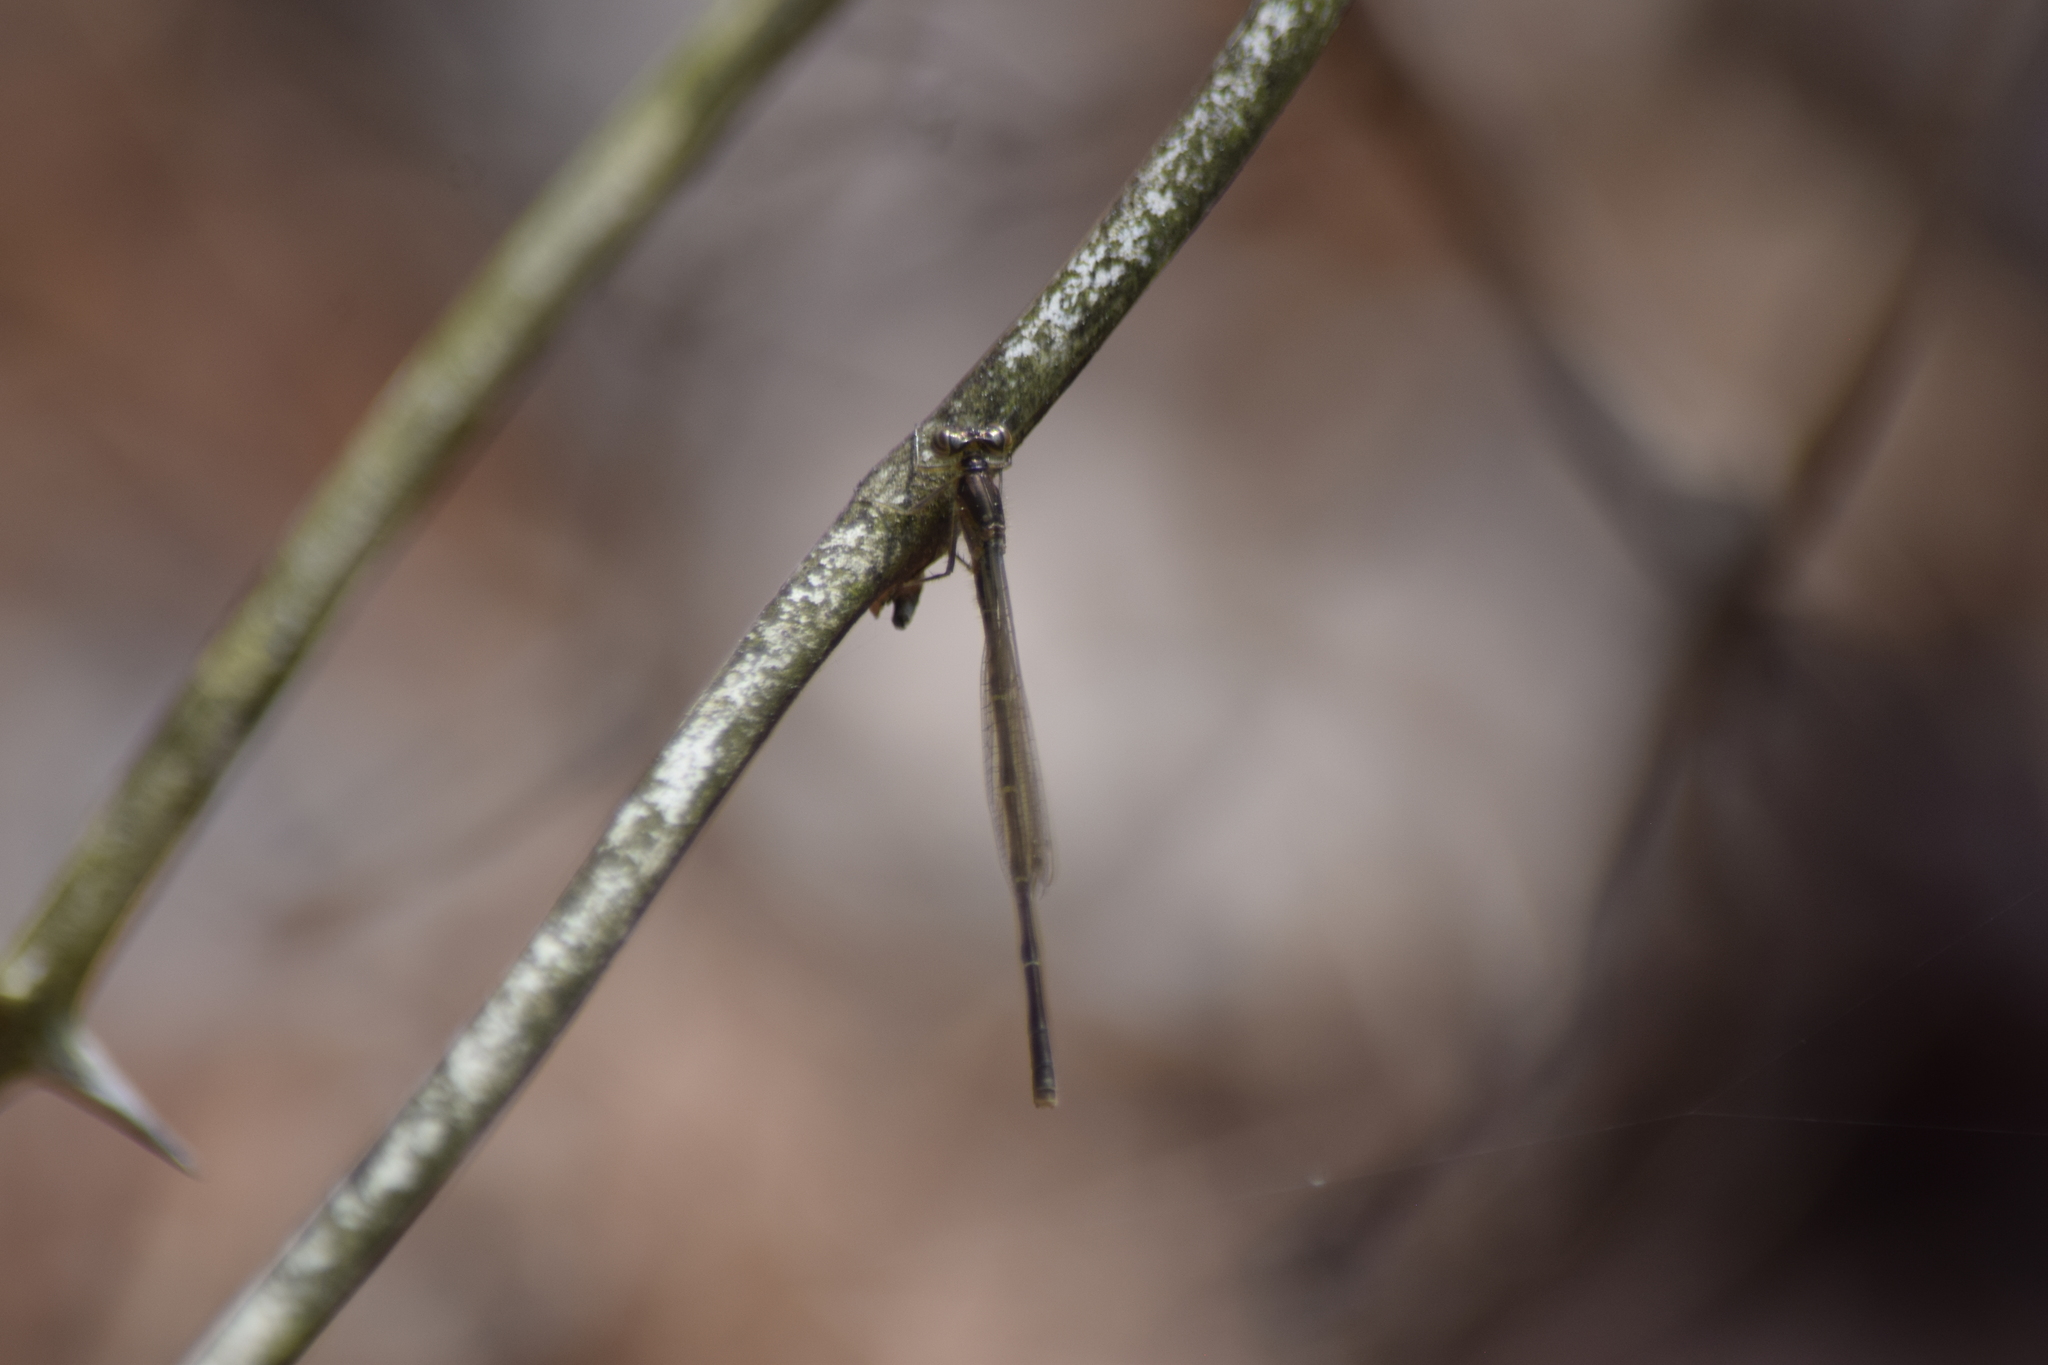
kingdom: Animalia
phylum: Arthropoda
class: Insecta
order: Odonata
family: Coenagrionidae
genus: Ischnura
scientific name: Ischnura posita
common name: Fragile forktail
